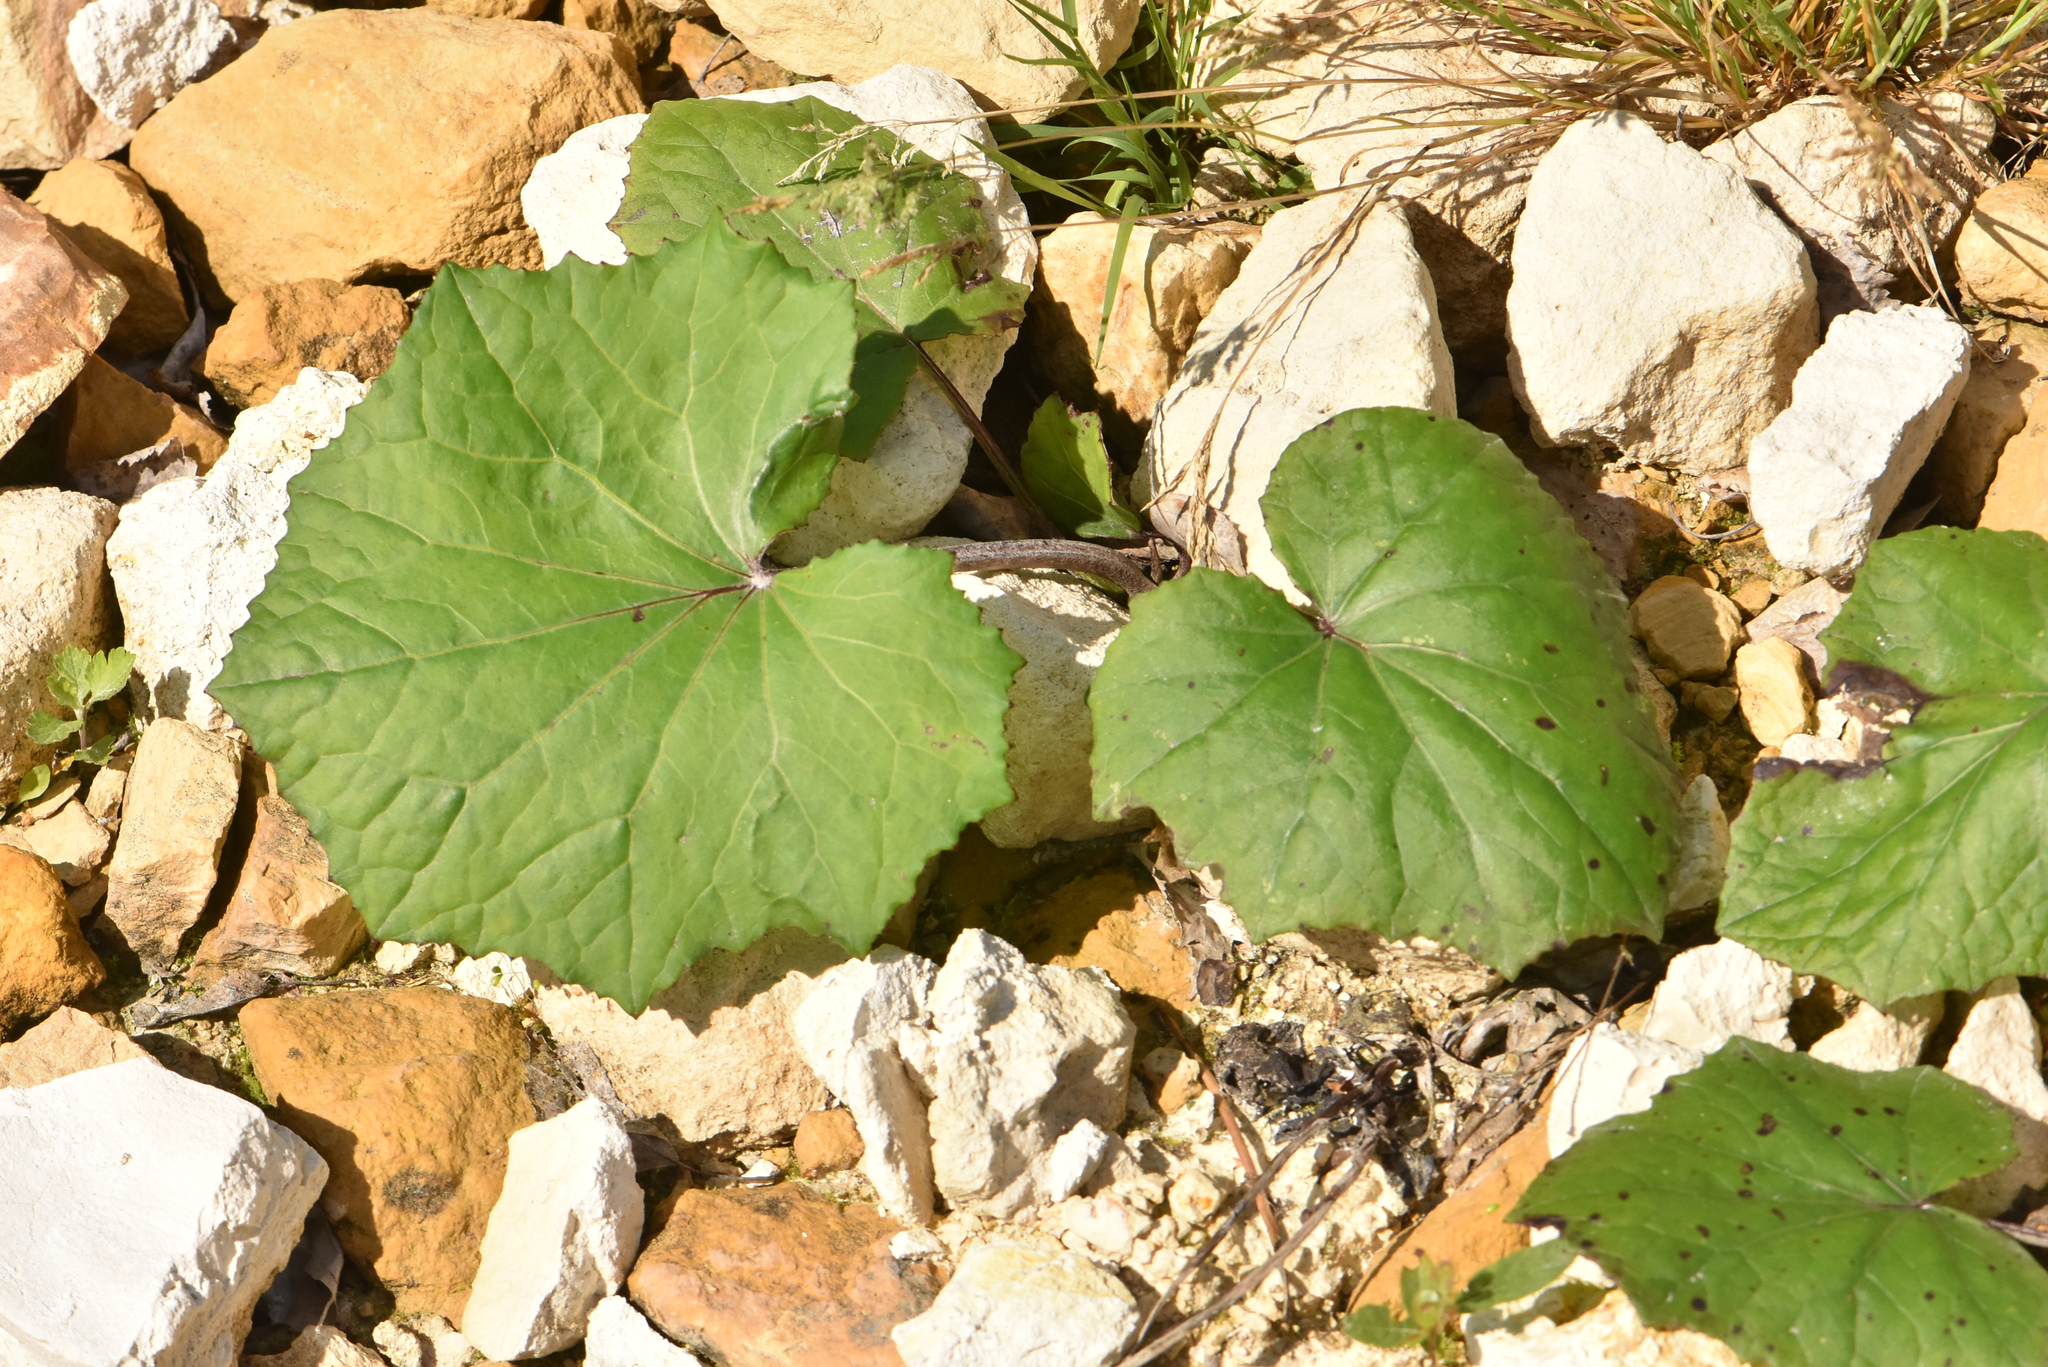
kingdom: Plantae
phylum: Tracheophyta
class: Magnoliopsida
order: Asterales
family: Asteraceae
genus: Tussilago
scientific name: Tussilago farfara
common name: Coltsfoot
